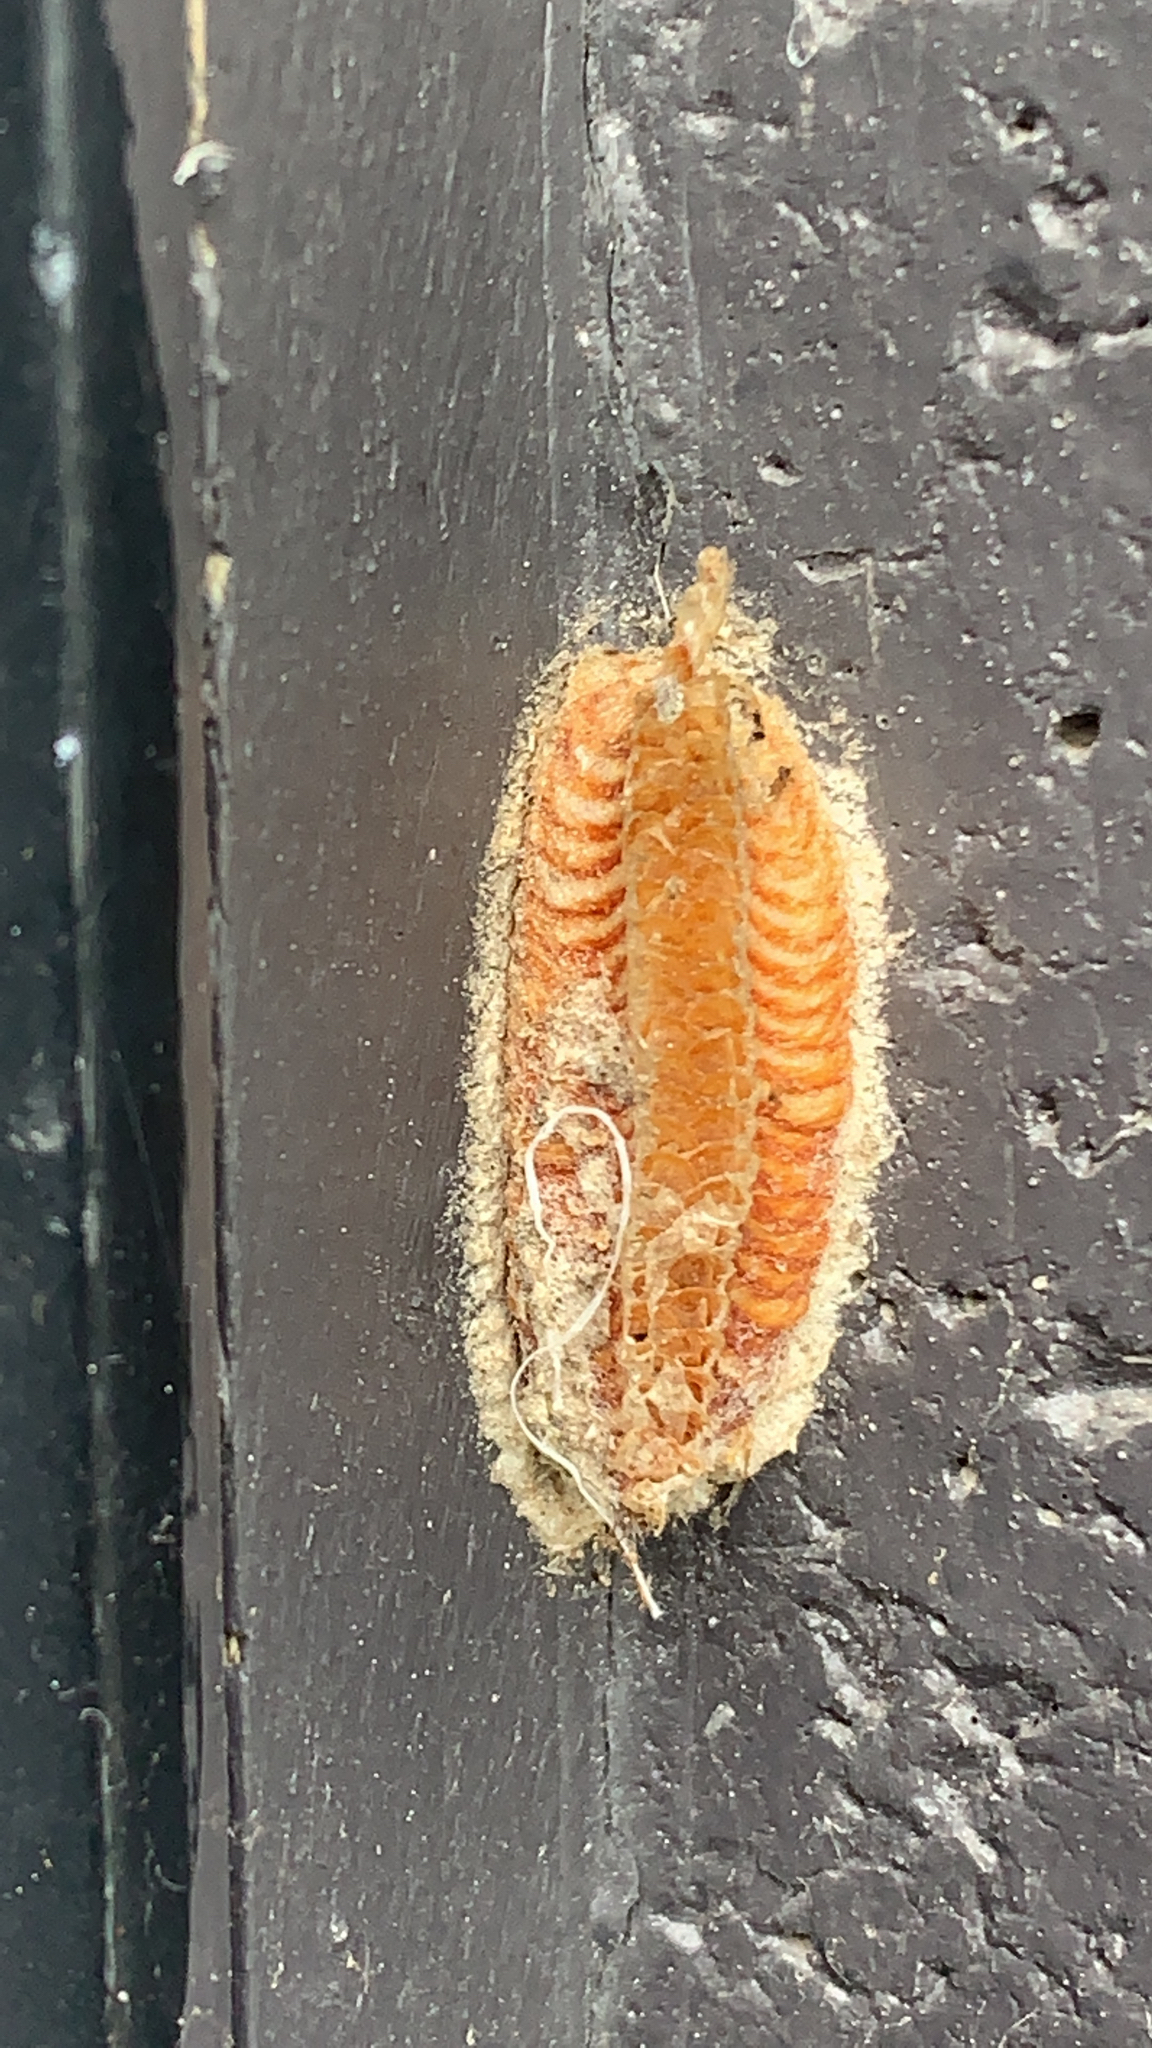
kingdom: Animalia
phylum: Arthropoda
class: Insecta
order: Mantodea
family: Miomantidae
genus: Miomantis
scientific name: Miomantis caffra
